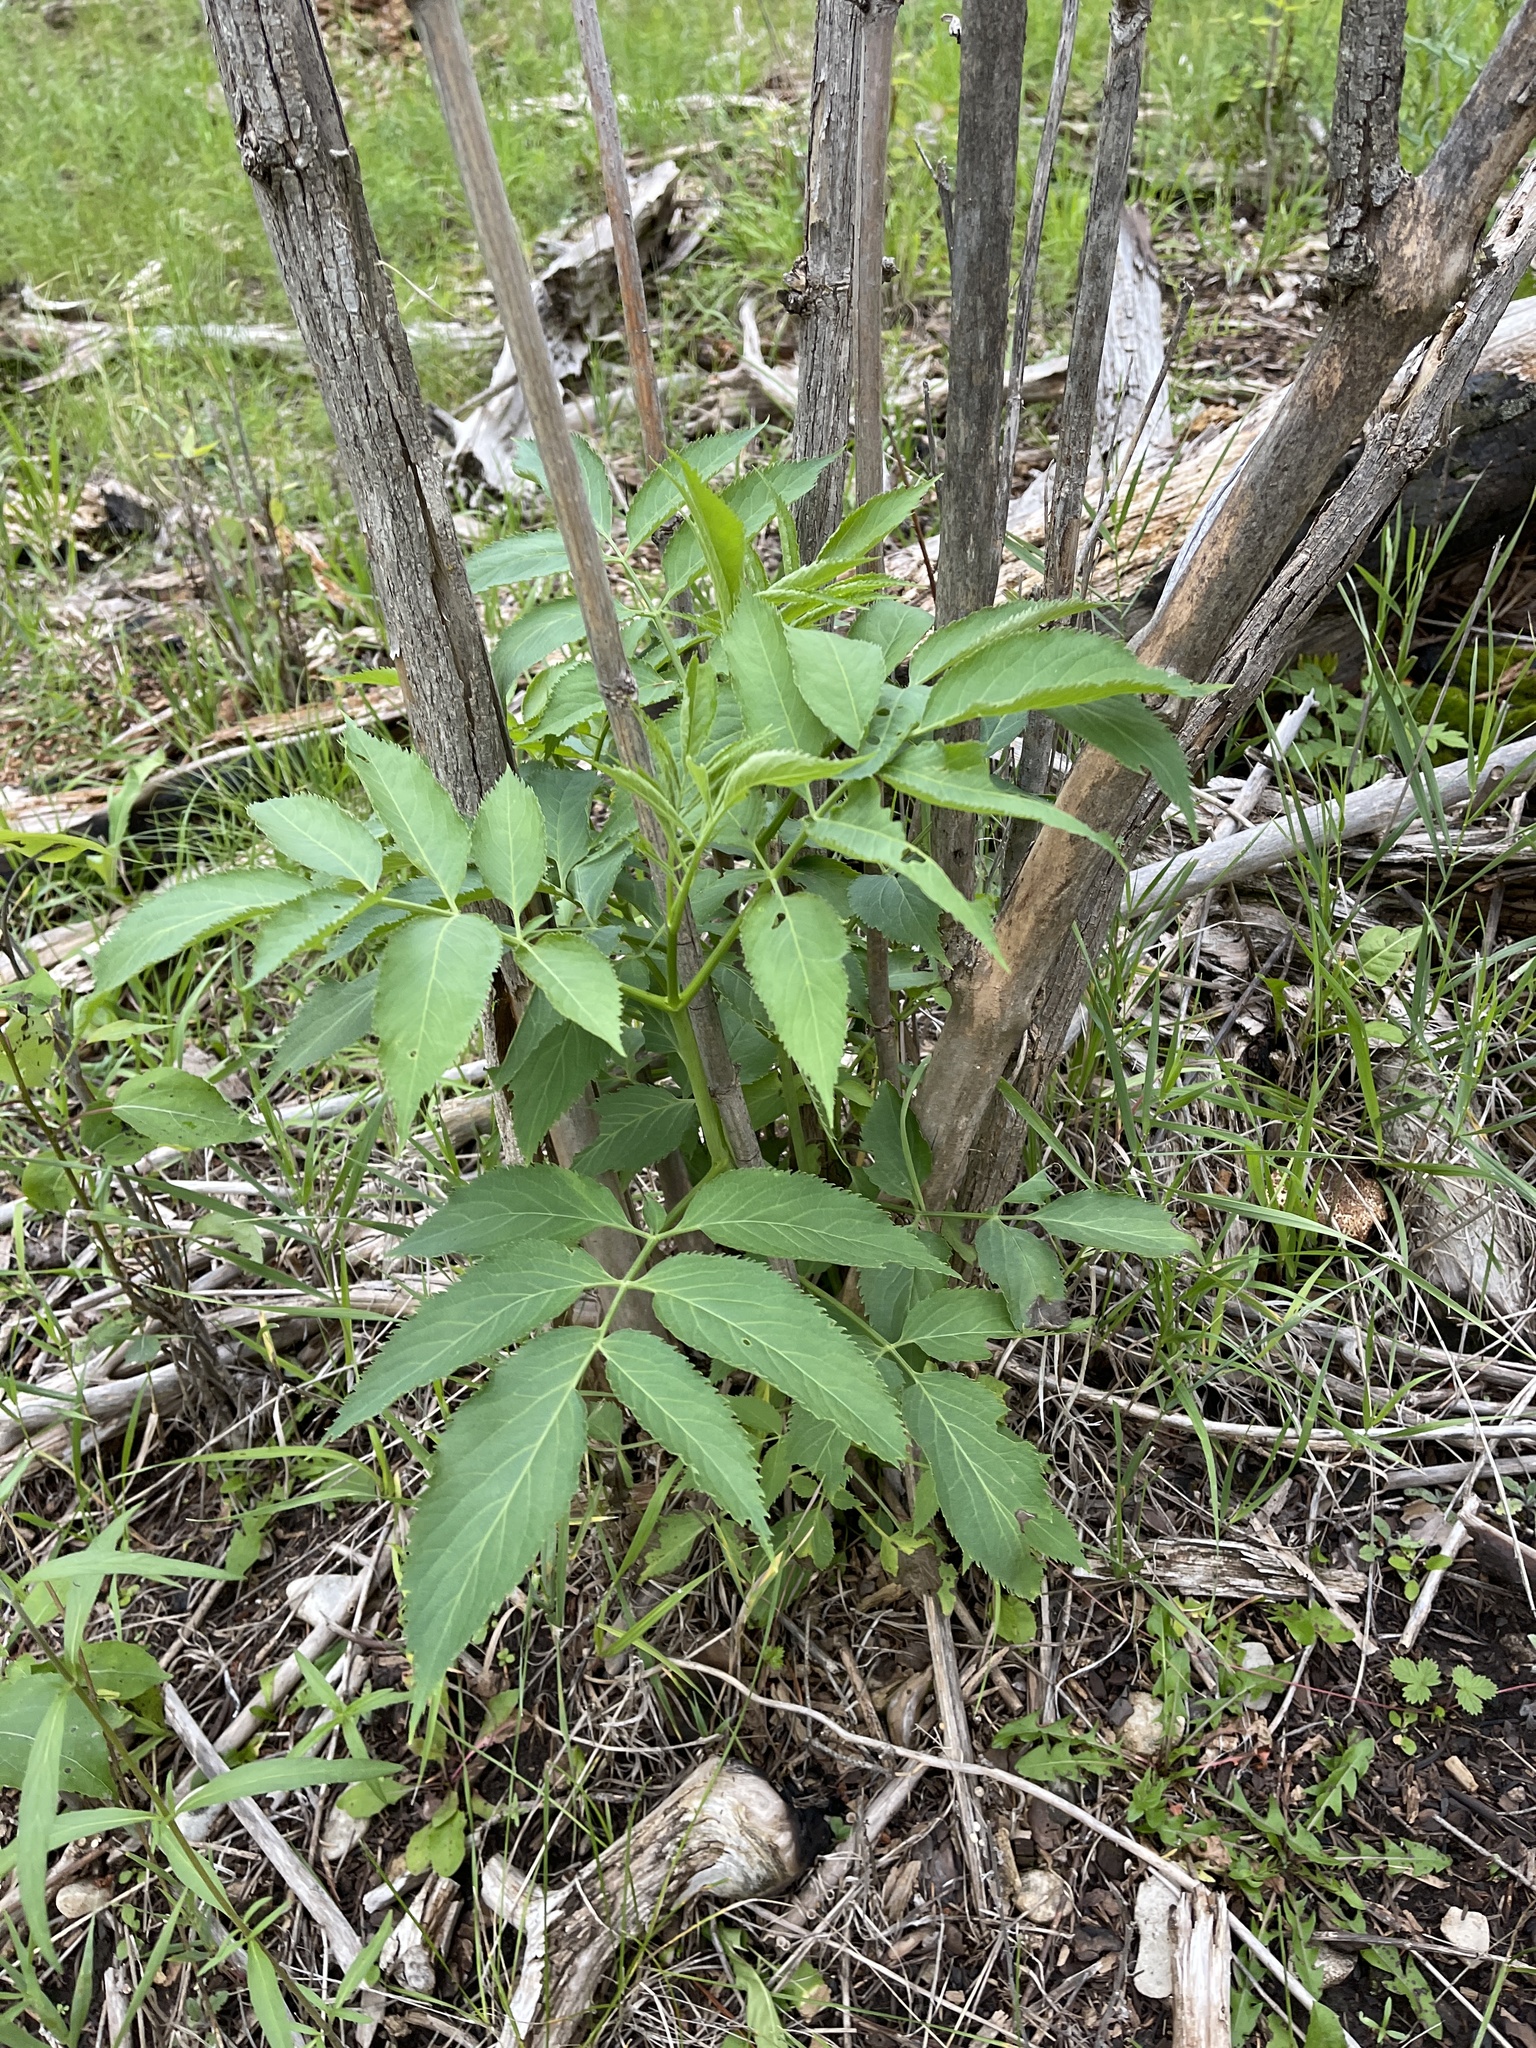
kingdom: Plantae
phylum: Tracheophyta
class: Magnoliopsida
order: Dipsacales
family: Viburnaceae
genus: Sambucus
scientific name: Sambucus cerulea
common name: Blue elder
